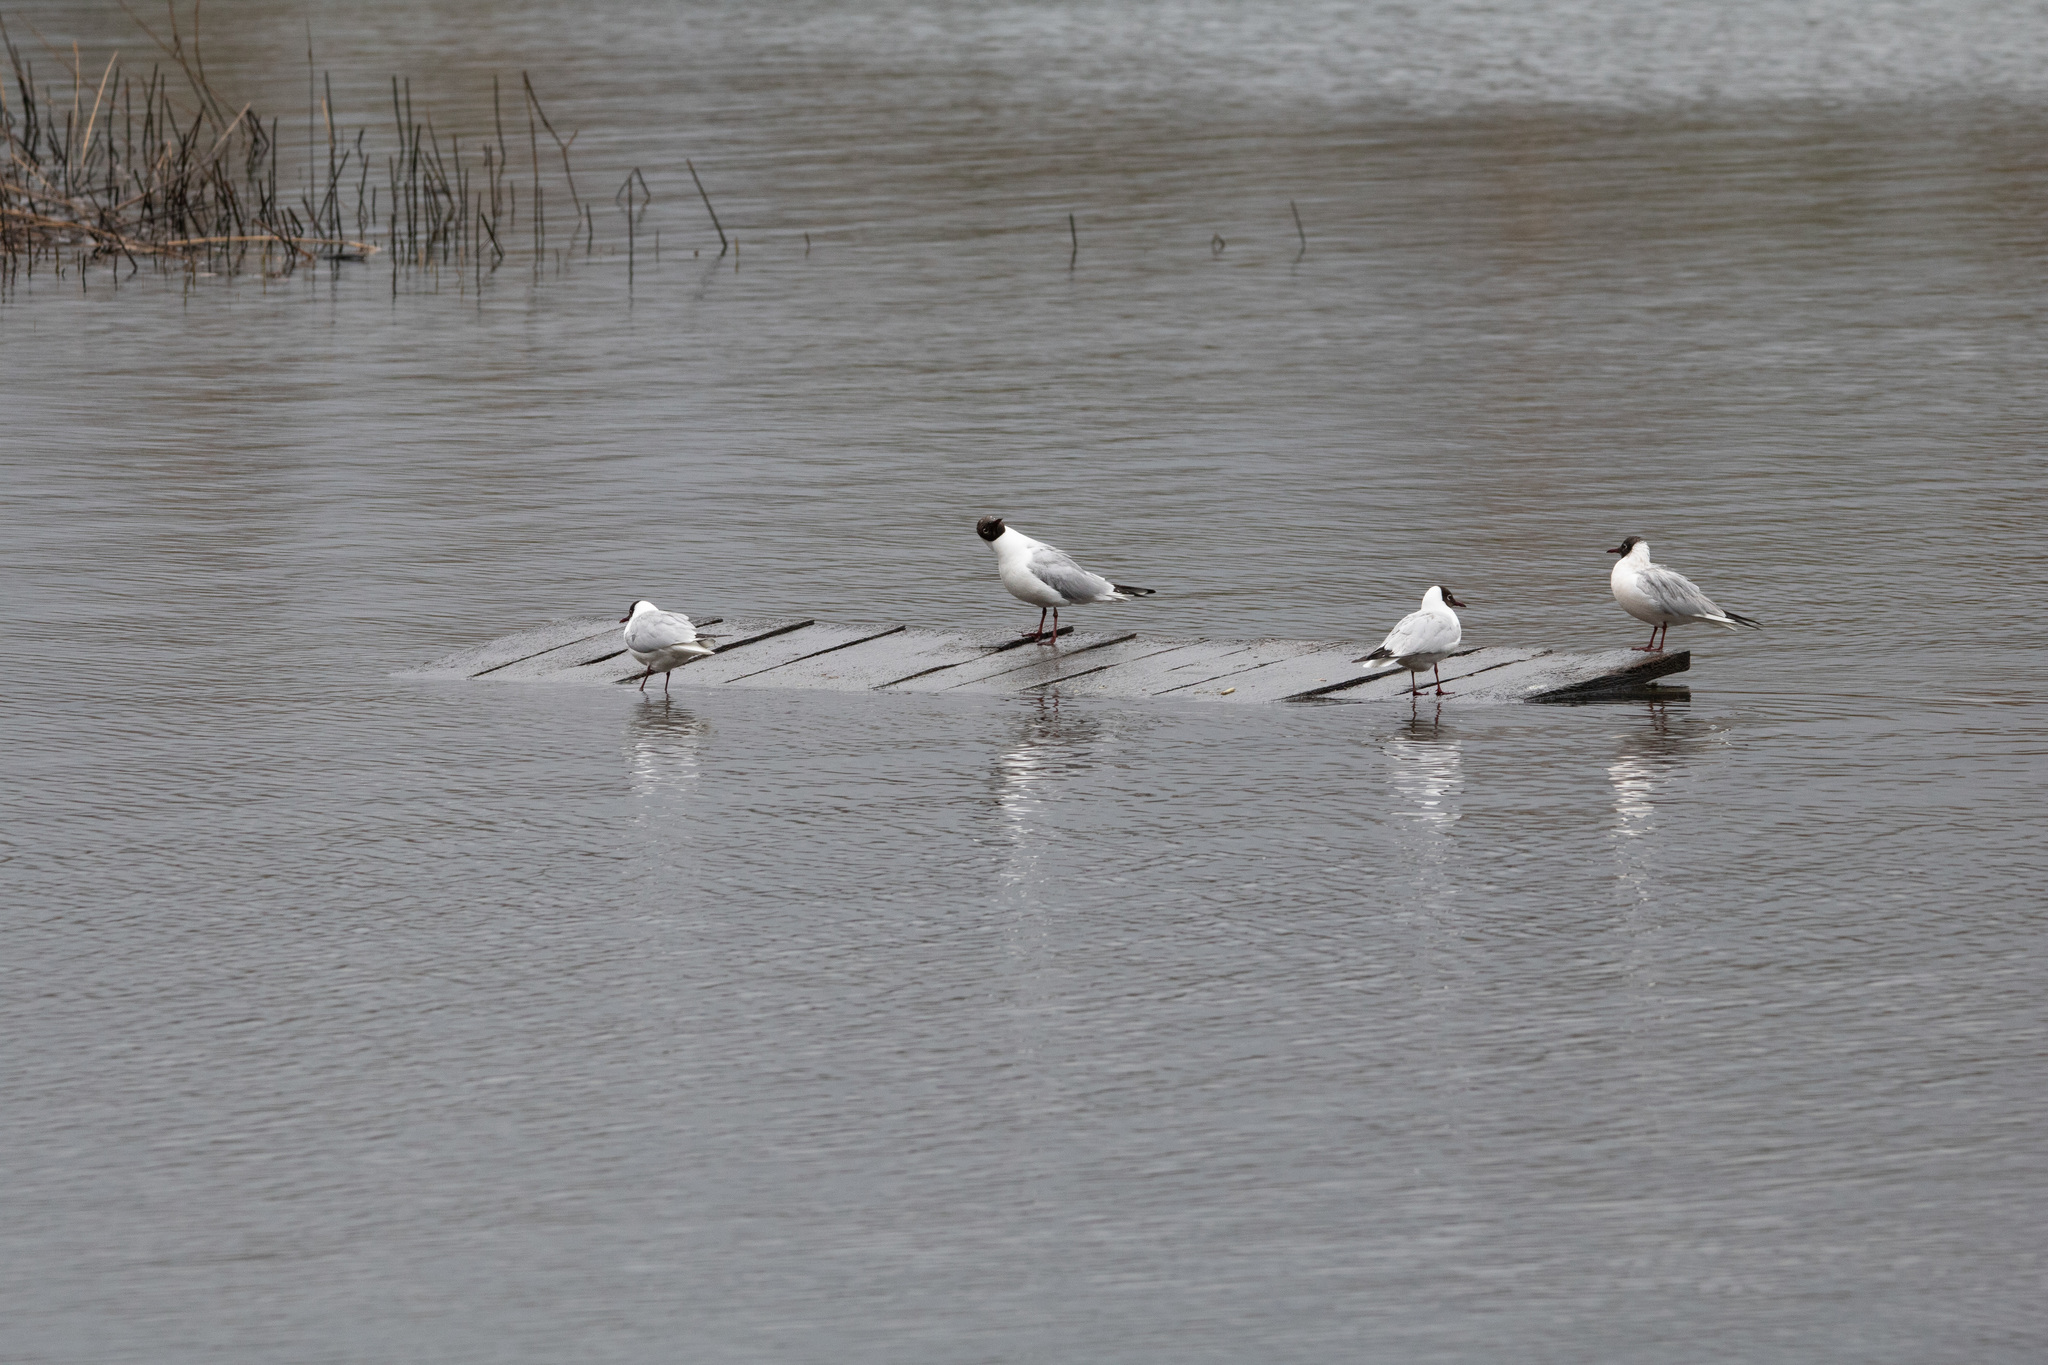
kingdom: Animalia
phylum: Chordata
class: Aves
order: Charadriiformes
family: Laridae
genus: Chroicocephalus
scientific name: Chroicocephalus ridibundus
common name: Black-headed gull
